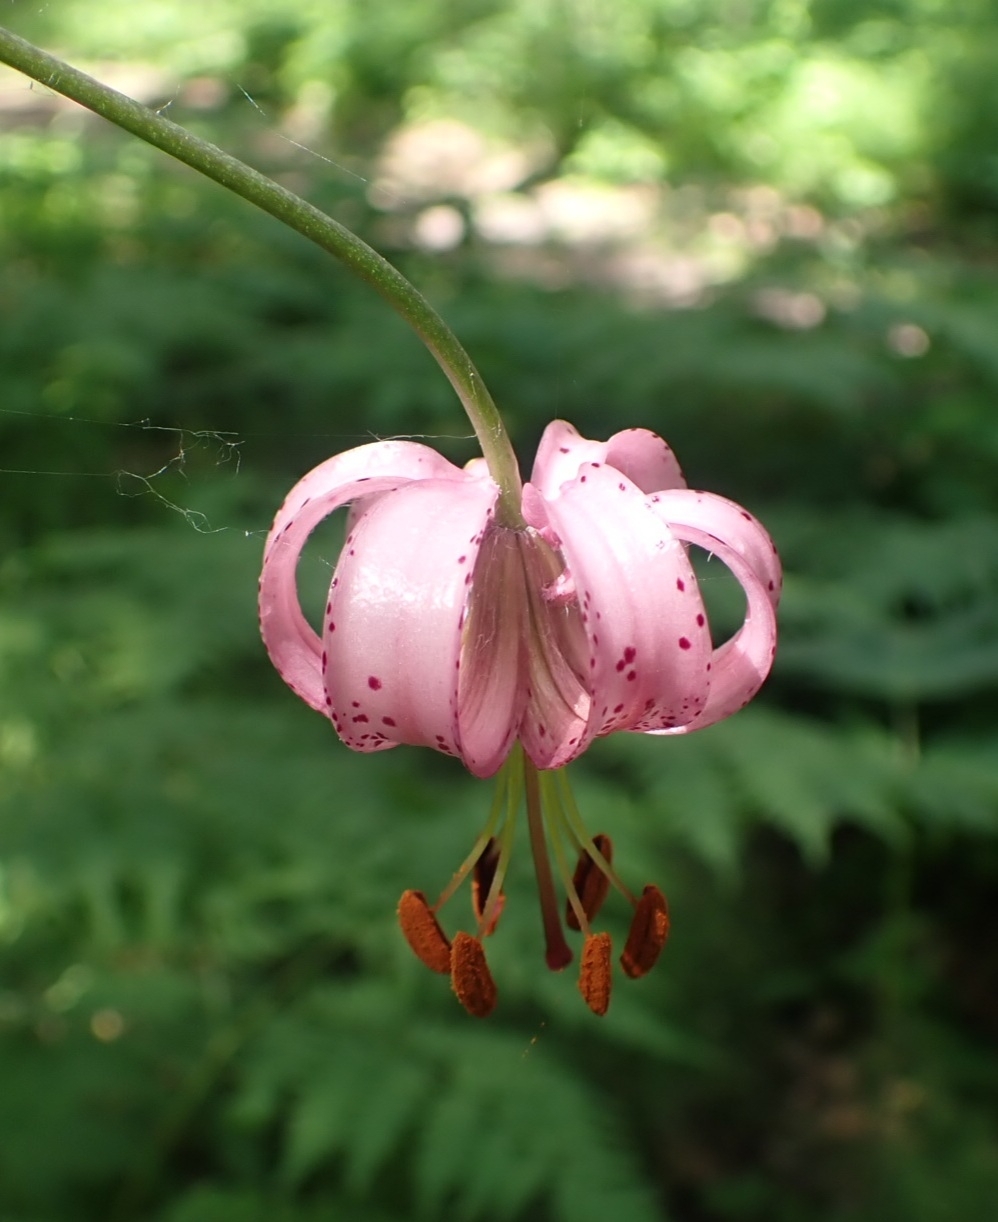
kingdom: Plantae
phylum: Tracheophyta
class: Liliopsida
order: Liliales
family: Liliaceae
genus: Lilium
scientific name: Lilium martagon
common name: Martagon lily
